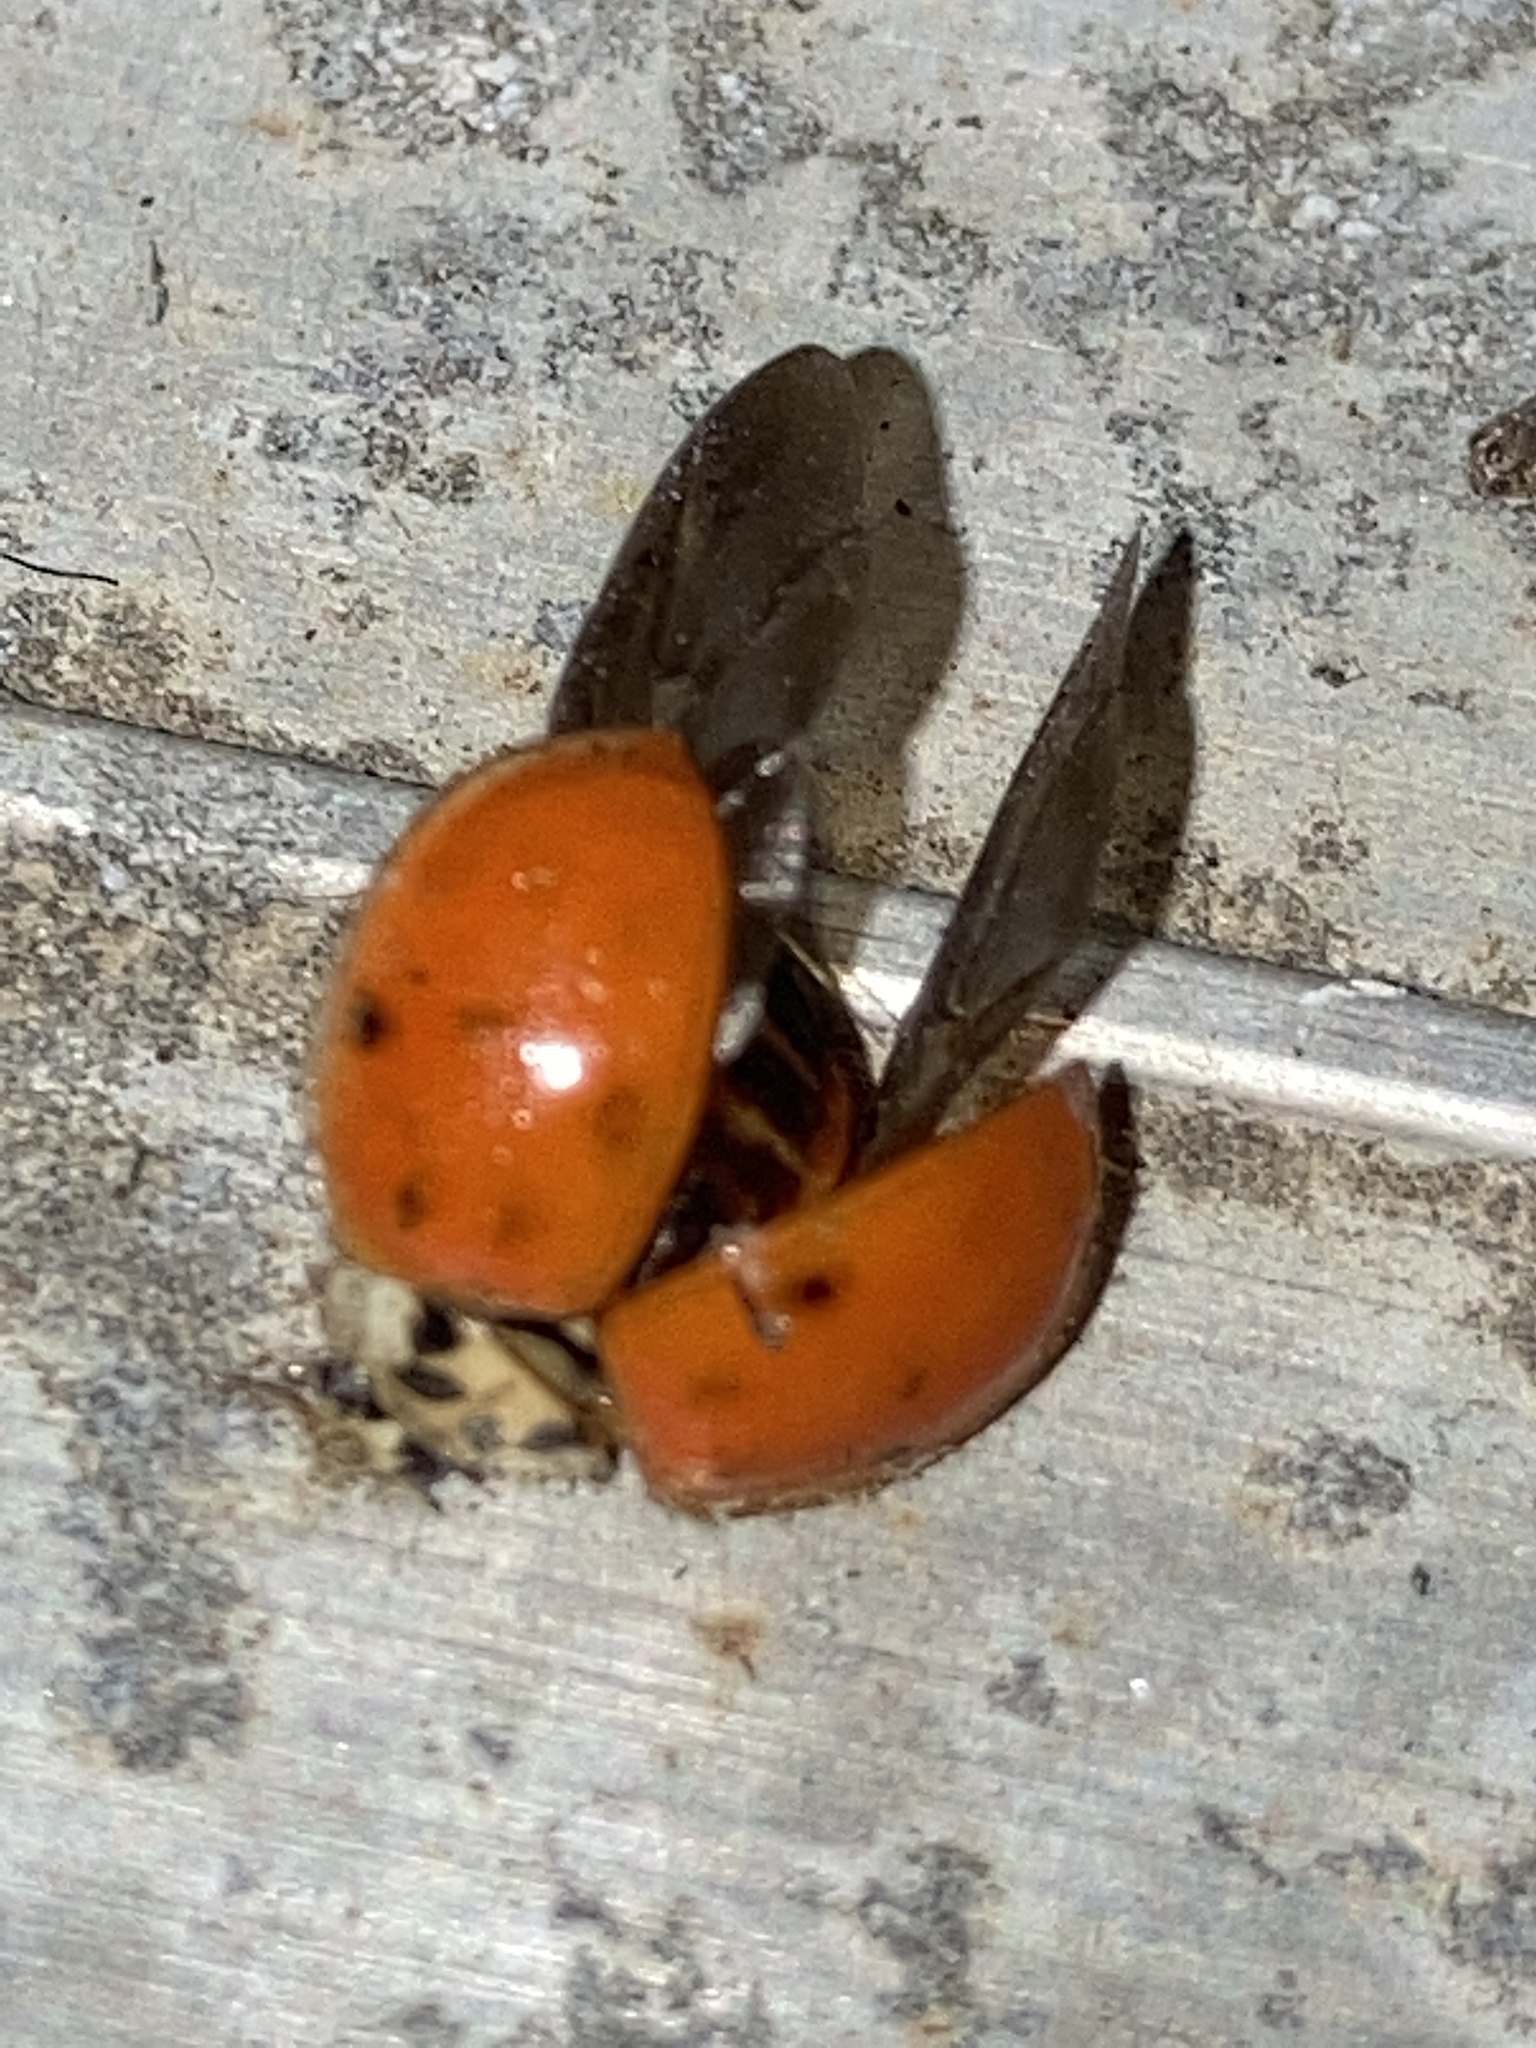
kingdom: Animalia
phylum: Arthropoda
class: Insecta
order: Coleoptera
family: Coccinellidae
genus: Harmonia
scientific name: Harmonia axyridis
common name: Harlequin ladybird
